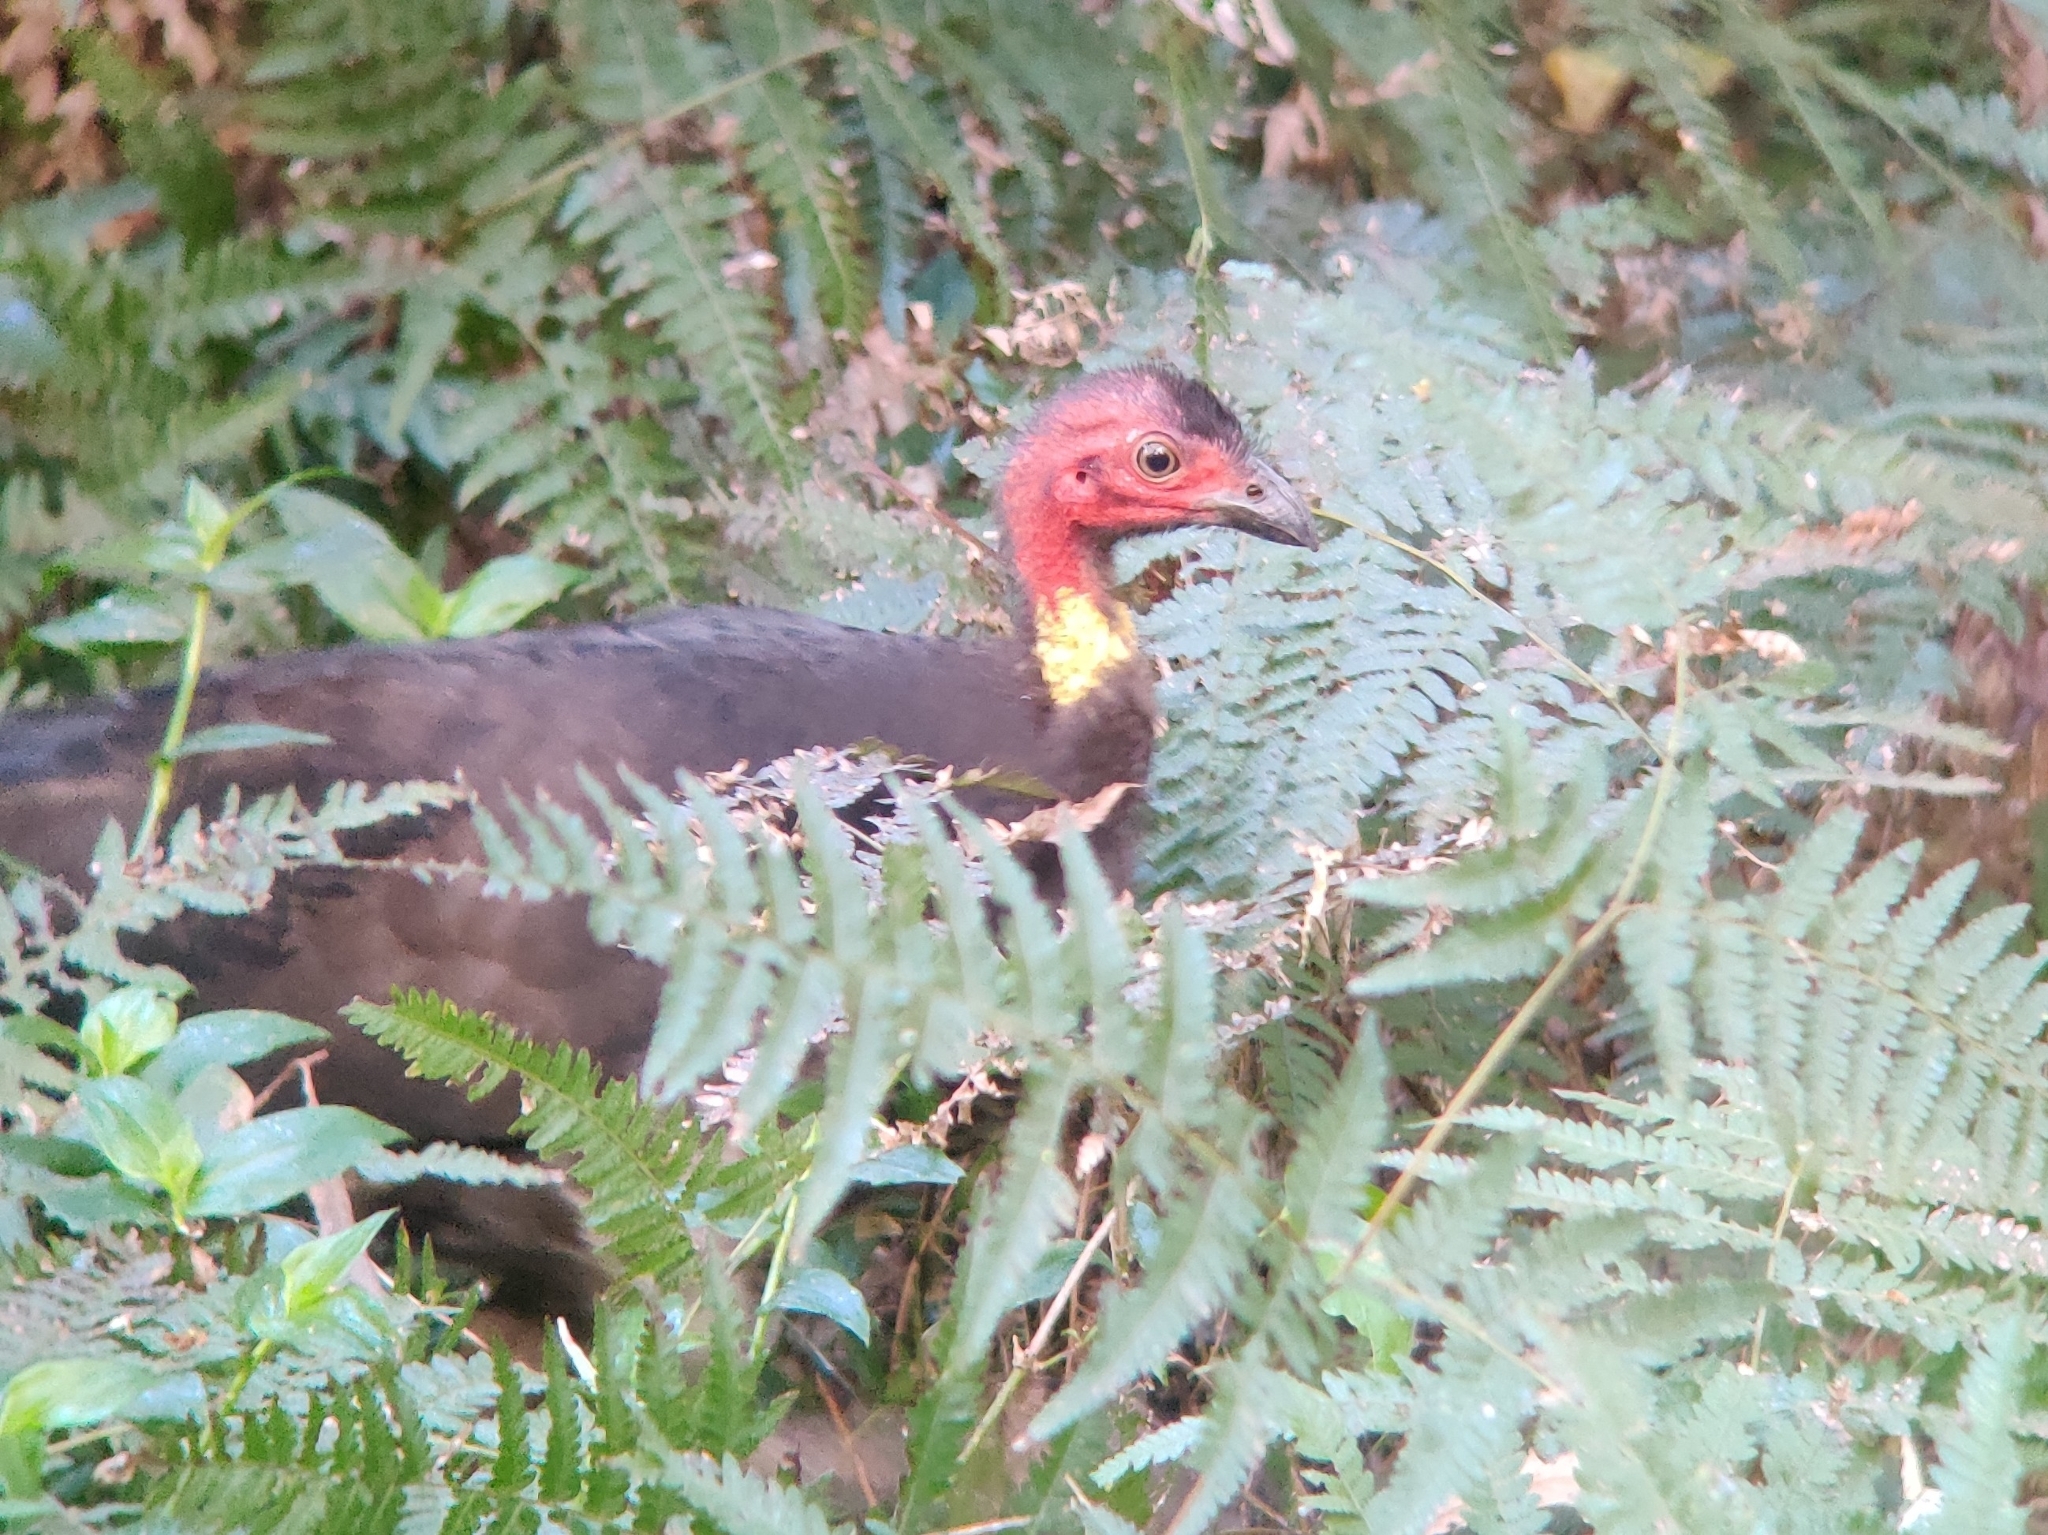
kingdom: Animalia
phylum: Chordata
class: Aves
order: Galliformes
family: Megapodiidae
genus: Alectura
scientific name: Alectura lathami
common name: Australian brushturkey
